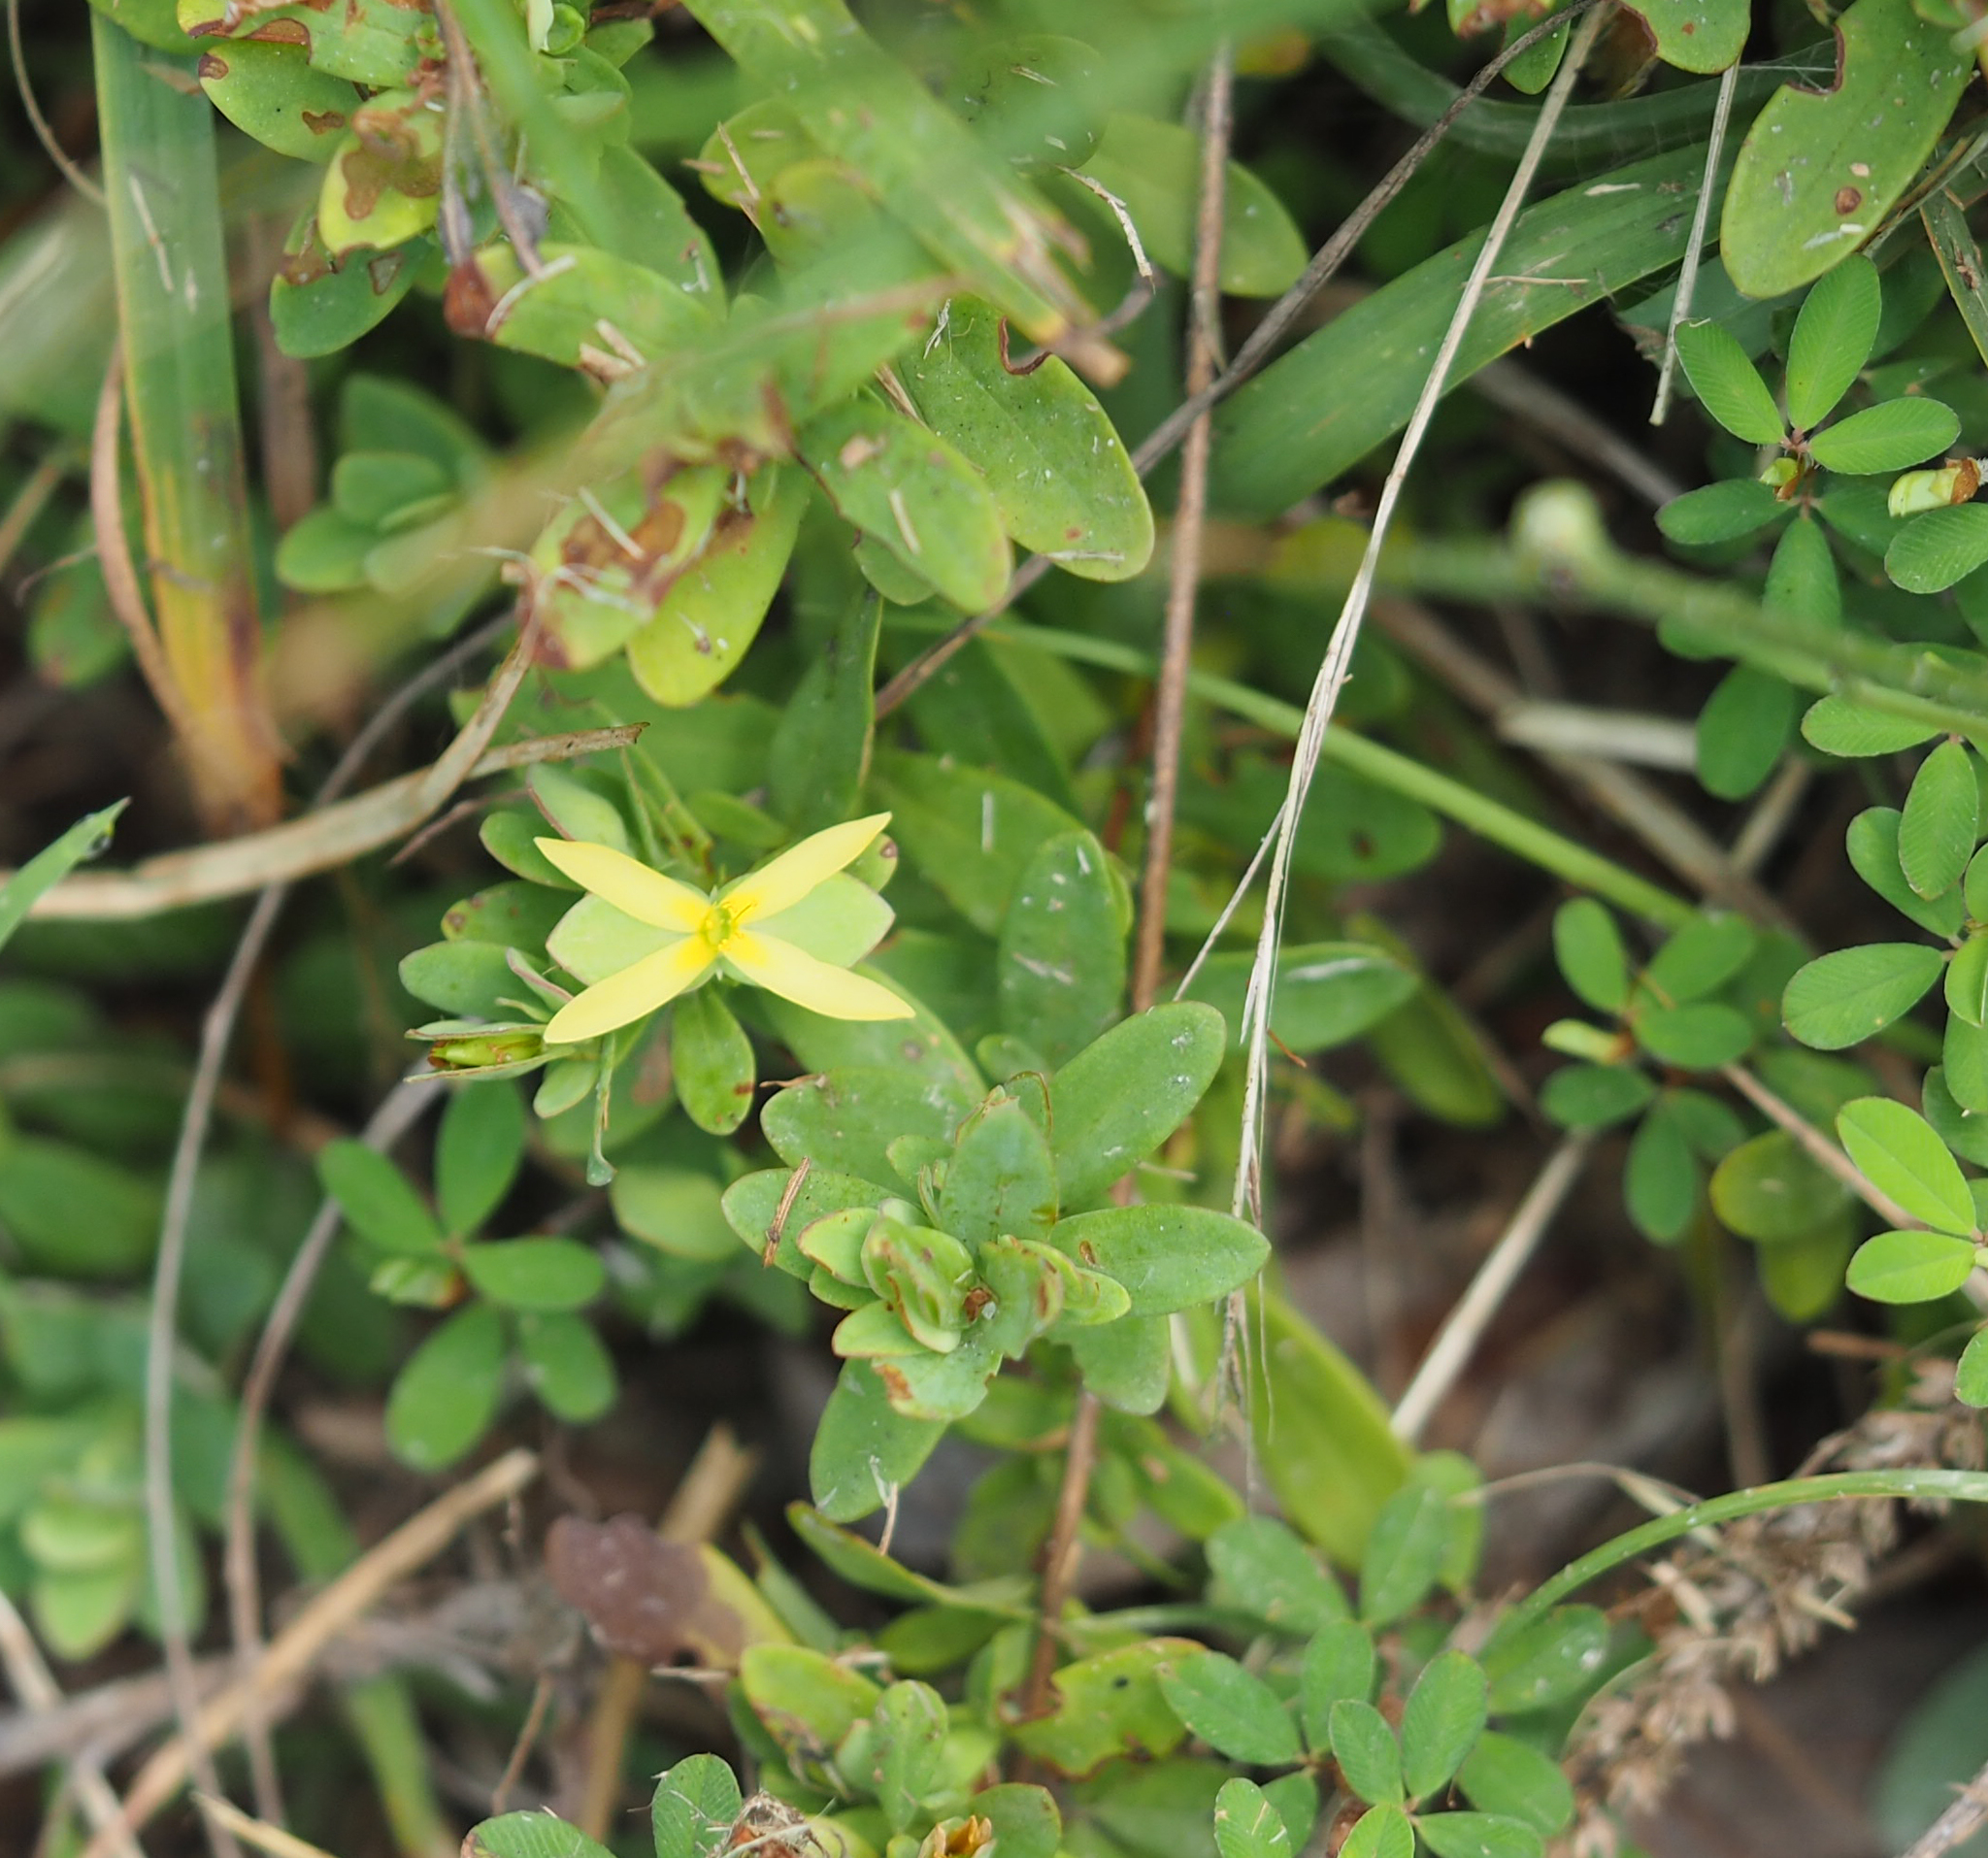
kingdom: Plantae
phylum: Tracheophyta
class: Magnoliopsida
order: Malpighiales
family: Hypericaceae
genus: Hypericum
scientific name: Hypericum hypericoides
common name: St. andrew's cross
